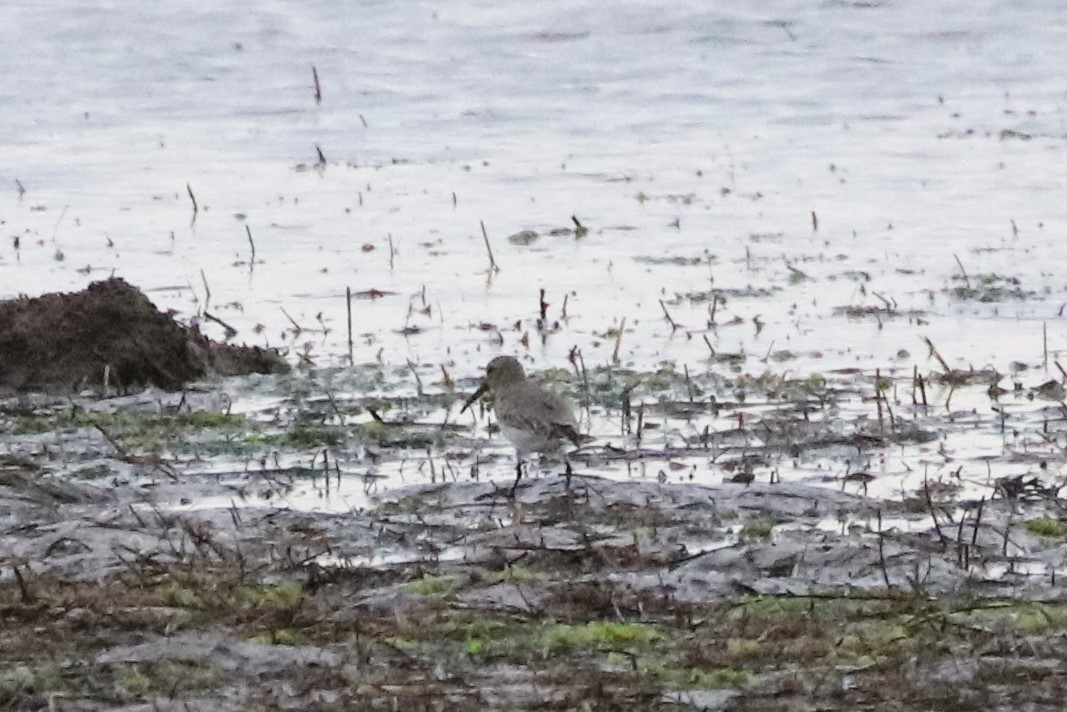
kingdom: Animalia
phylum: Chordata
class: Aves
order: Charadriiformes
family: Scolopacidae
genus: Calidris
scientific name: Calidris alpina
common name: Dunlin
